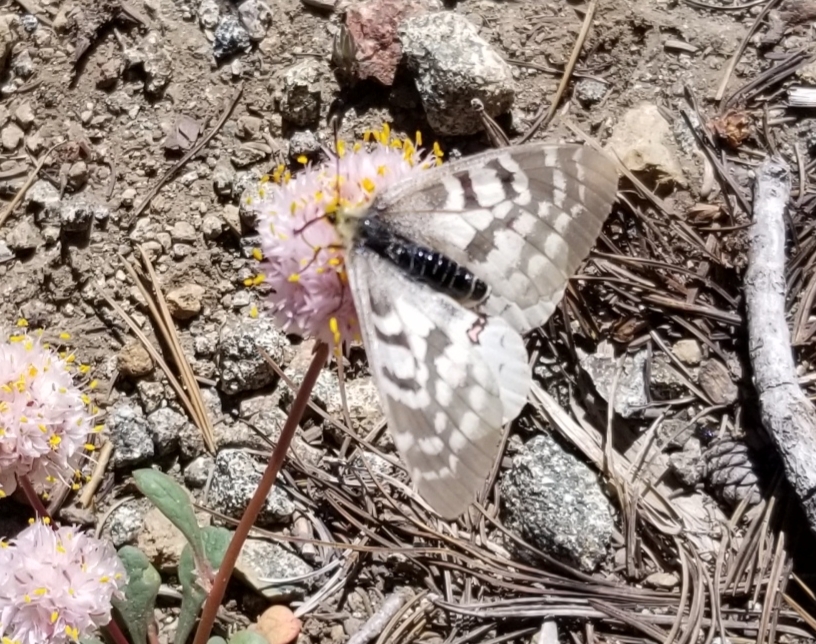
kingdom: Animalia
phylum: Arthropoda
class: Insecta
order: Lepidoptera
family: Papilionidae
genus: Parnassius
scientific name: Parnassius clodius
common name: American apollo
